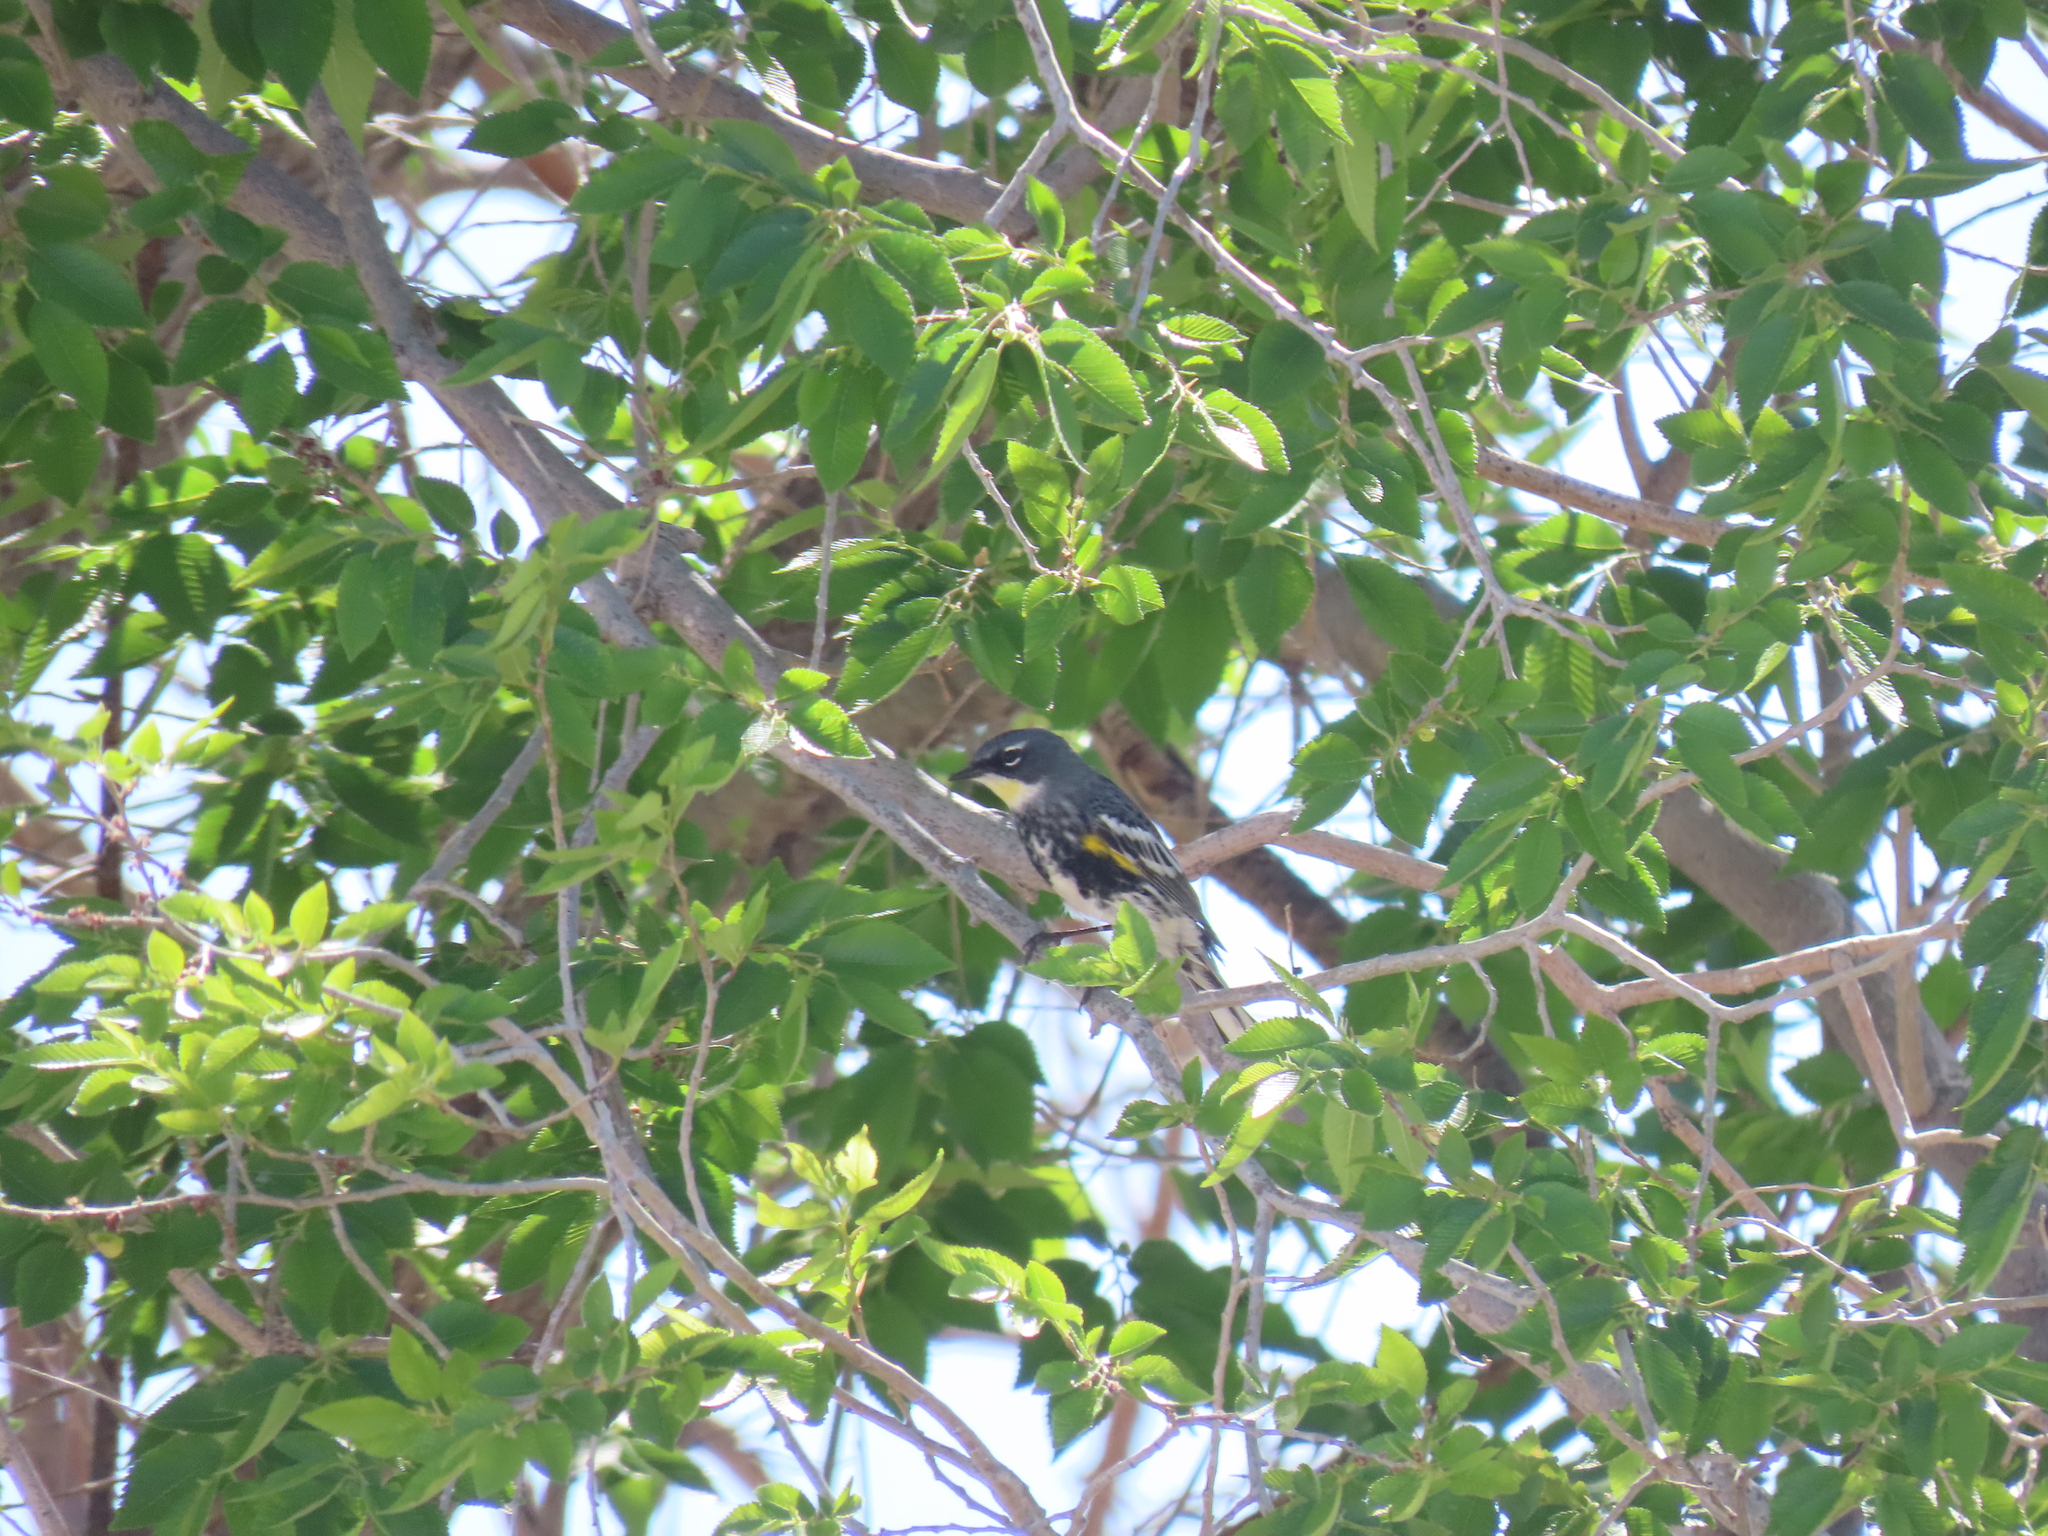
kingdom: Animalia
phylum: Chordata
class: Aves
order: Passeriformes
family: Parulidae
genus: Setophaga
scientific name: Setophaga
